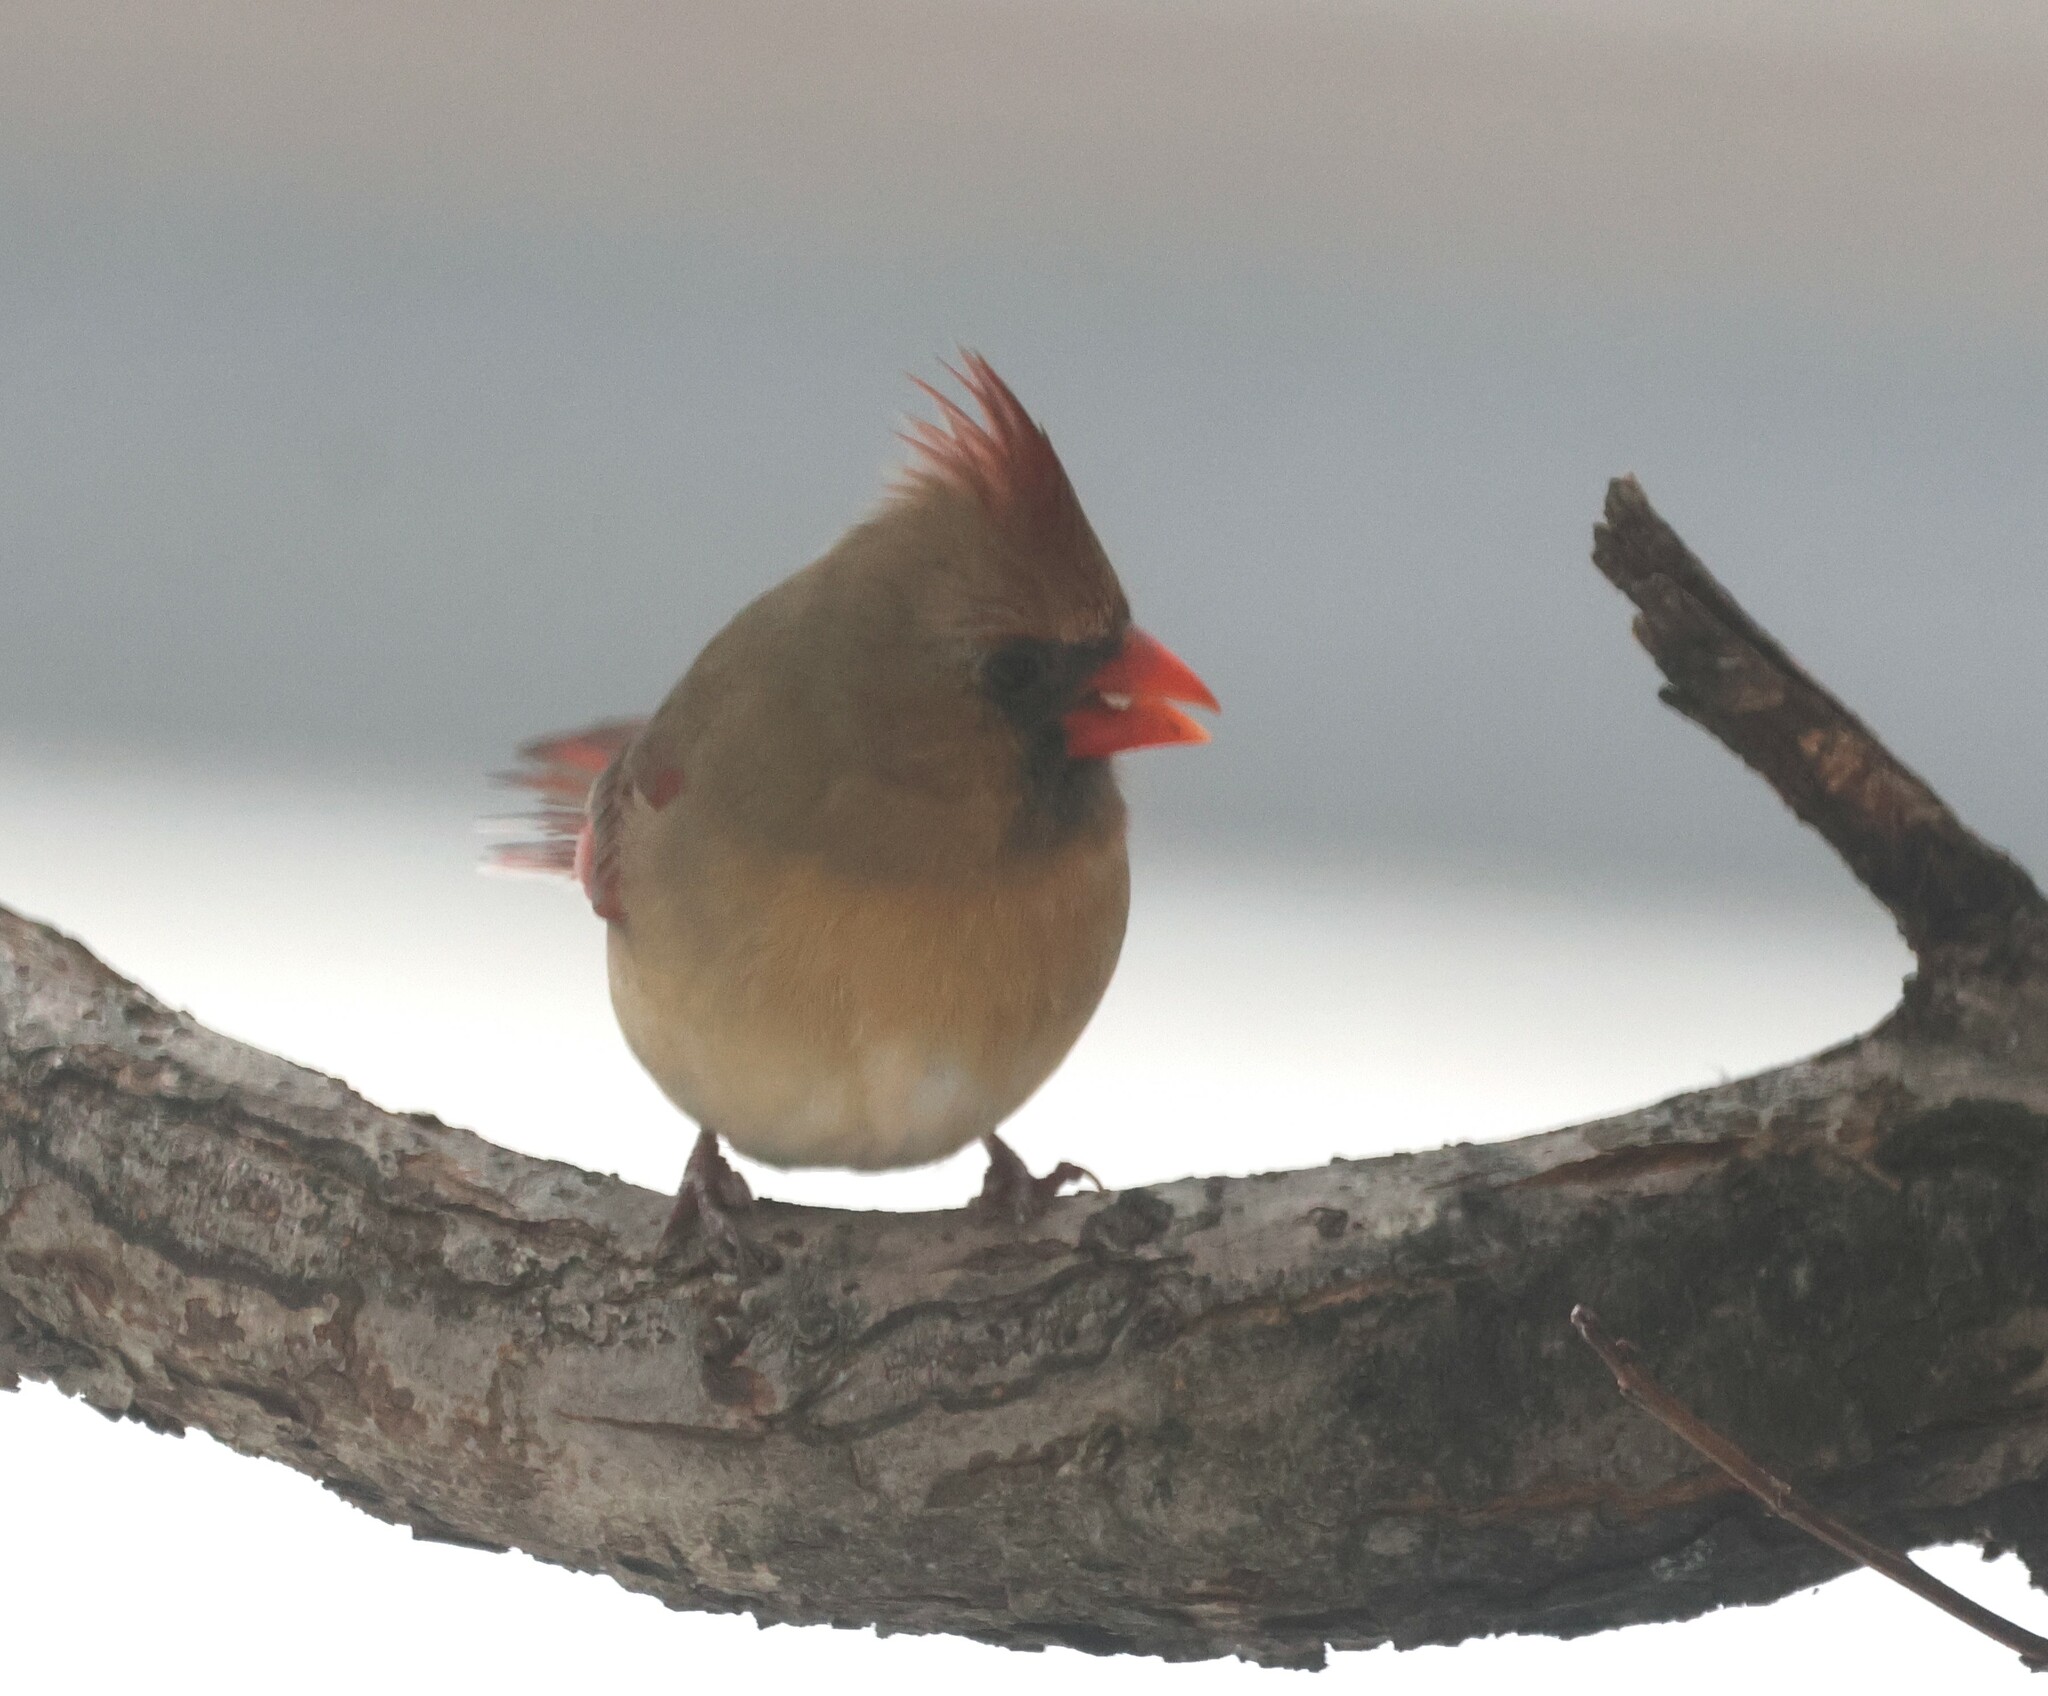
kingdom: Animalia
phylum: Chordata
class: Aves
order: Passeriformes
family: Cardinalidae
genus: Cardinalis
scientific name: Cardinalis cardinalis
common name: Northern cardinal
